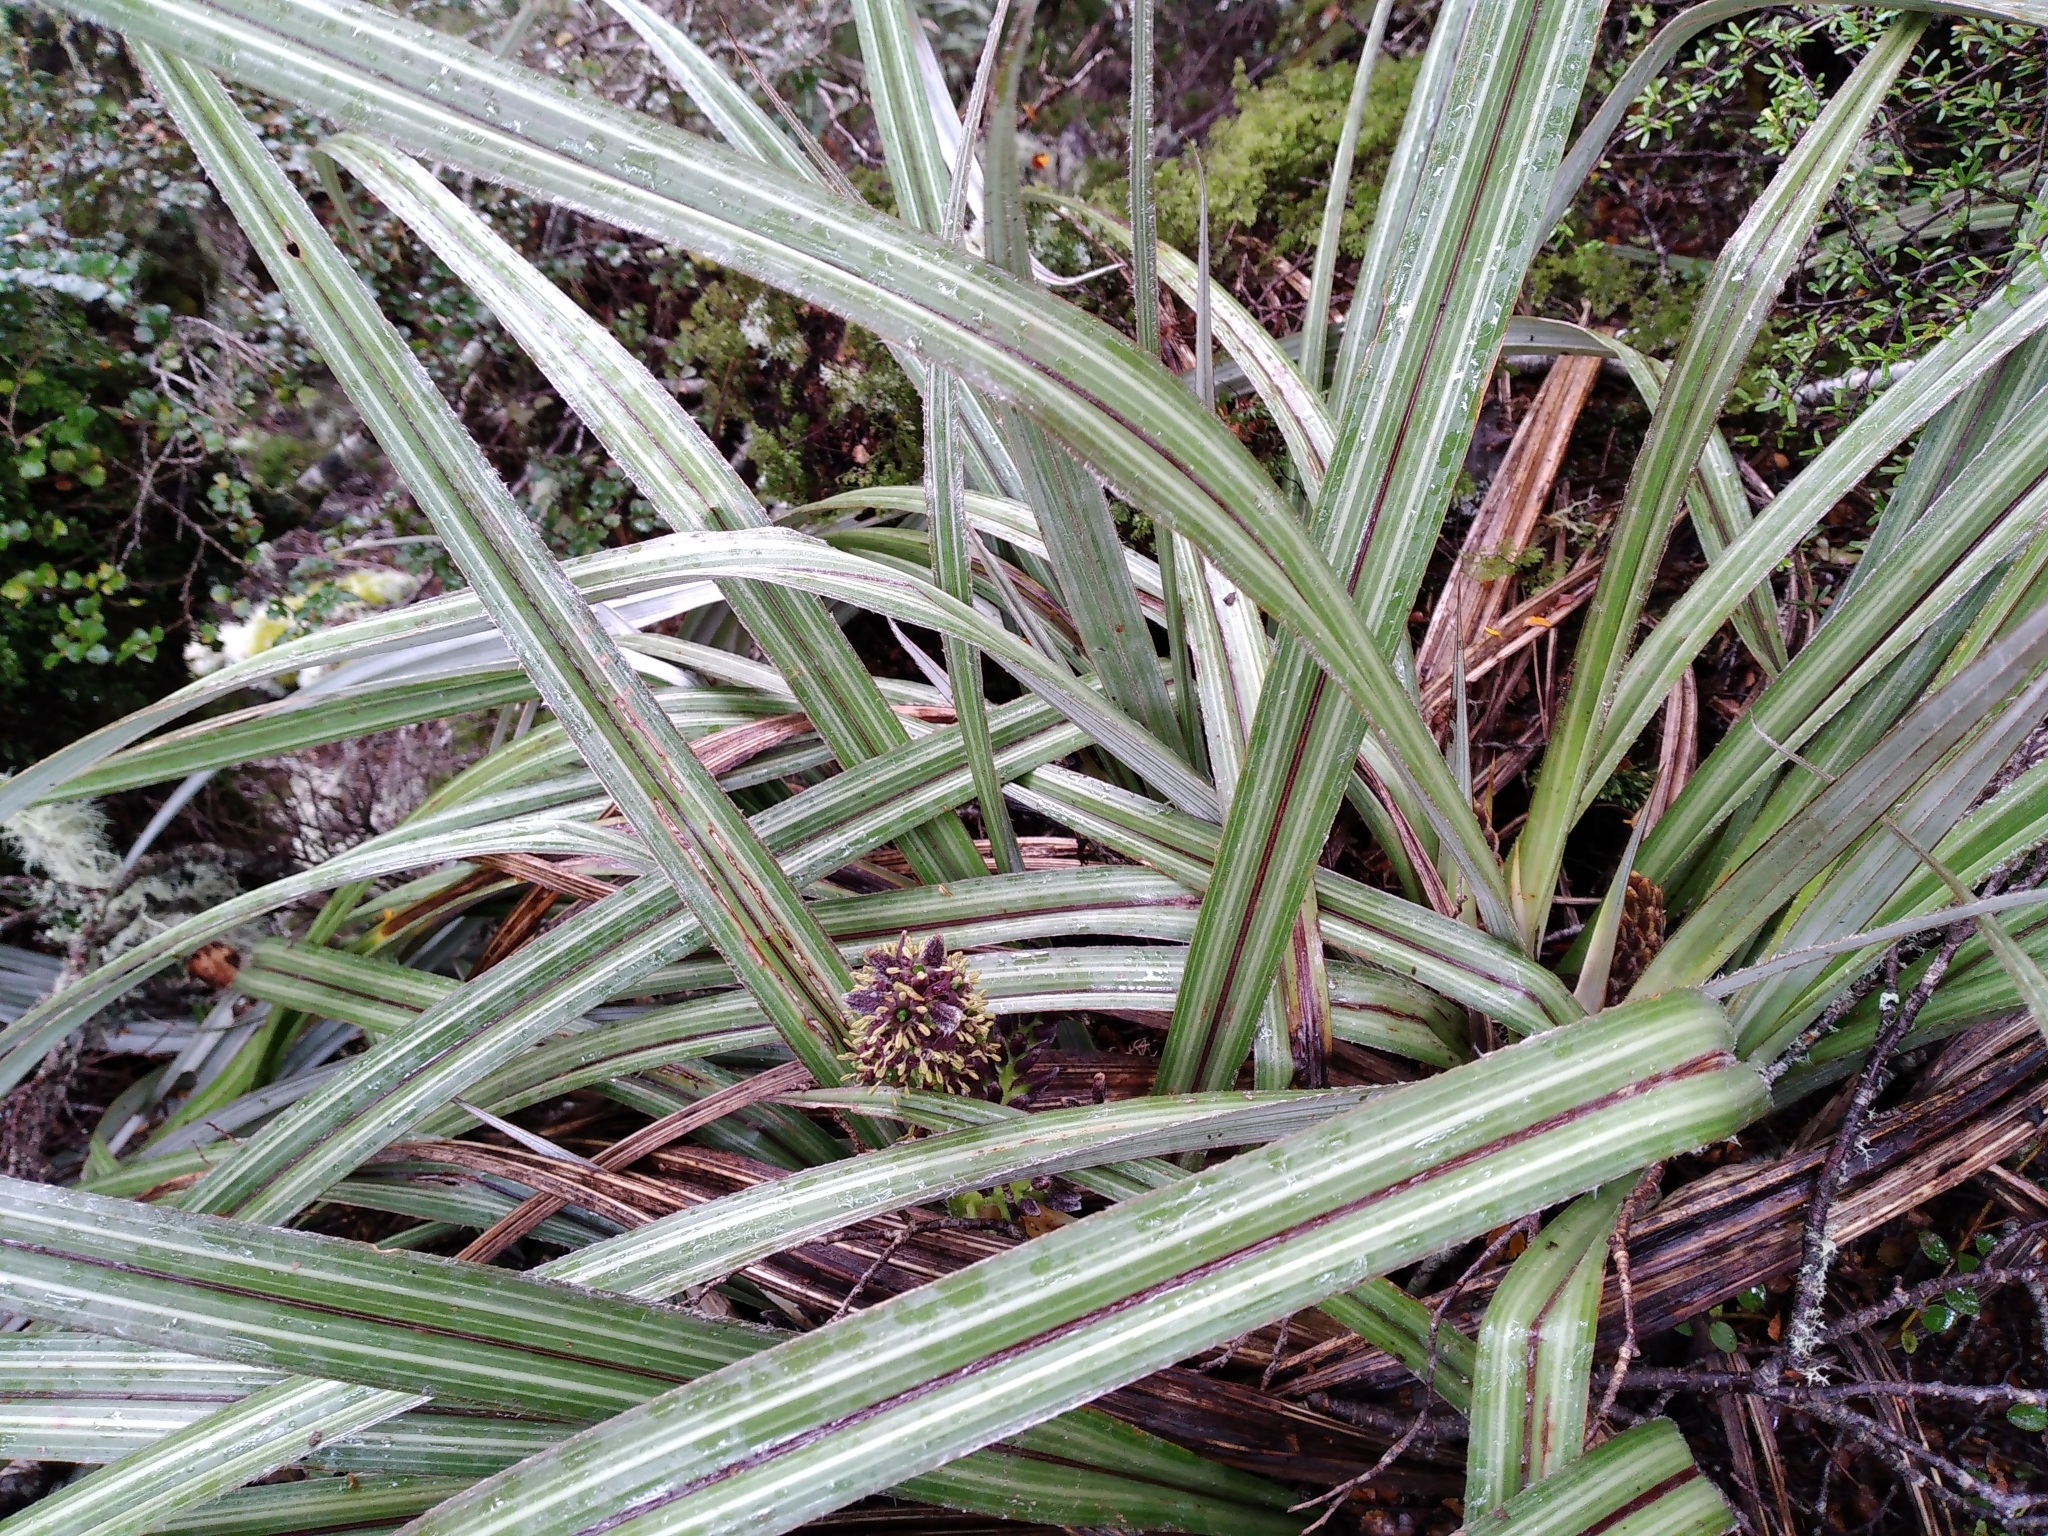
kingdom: Plantae
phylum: Tracheophyta
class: Liliopsida
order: Asparagales
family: Asteliaceae
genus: Astelia
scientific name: Astelia nervosa
